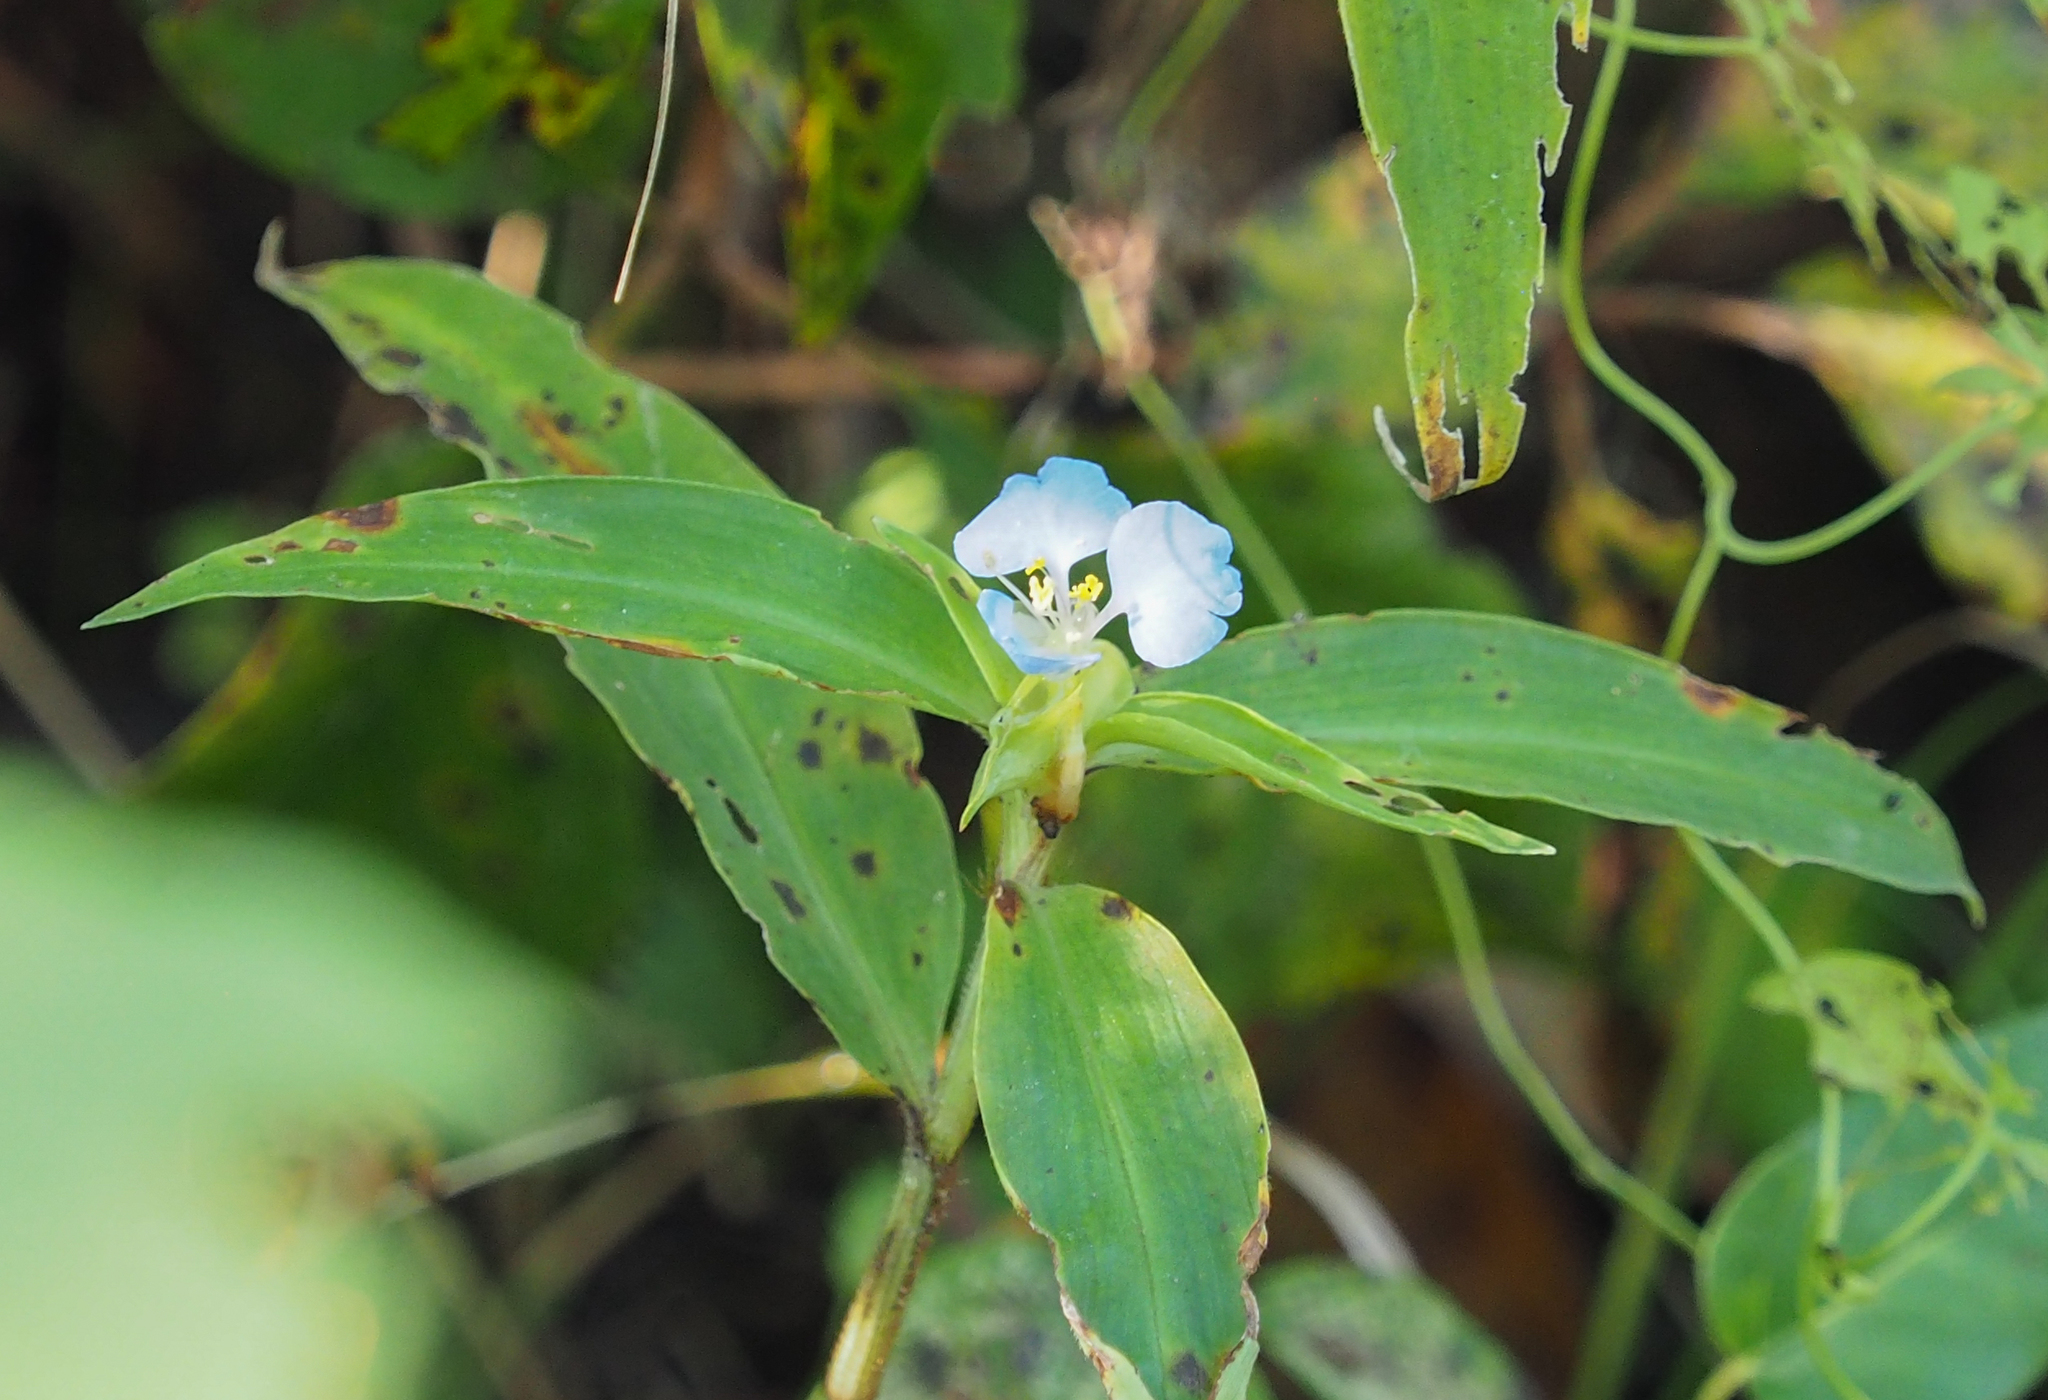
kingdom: Plantae
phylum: Tracheophyta
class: Liliopsida
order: Commelinales
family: Commelinaceae
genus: Commelina
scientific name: Commelina virginica
